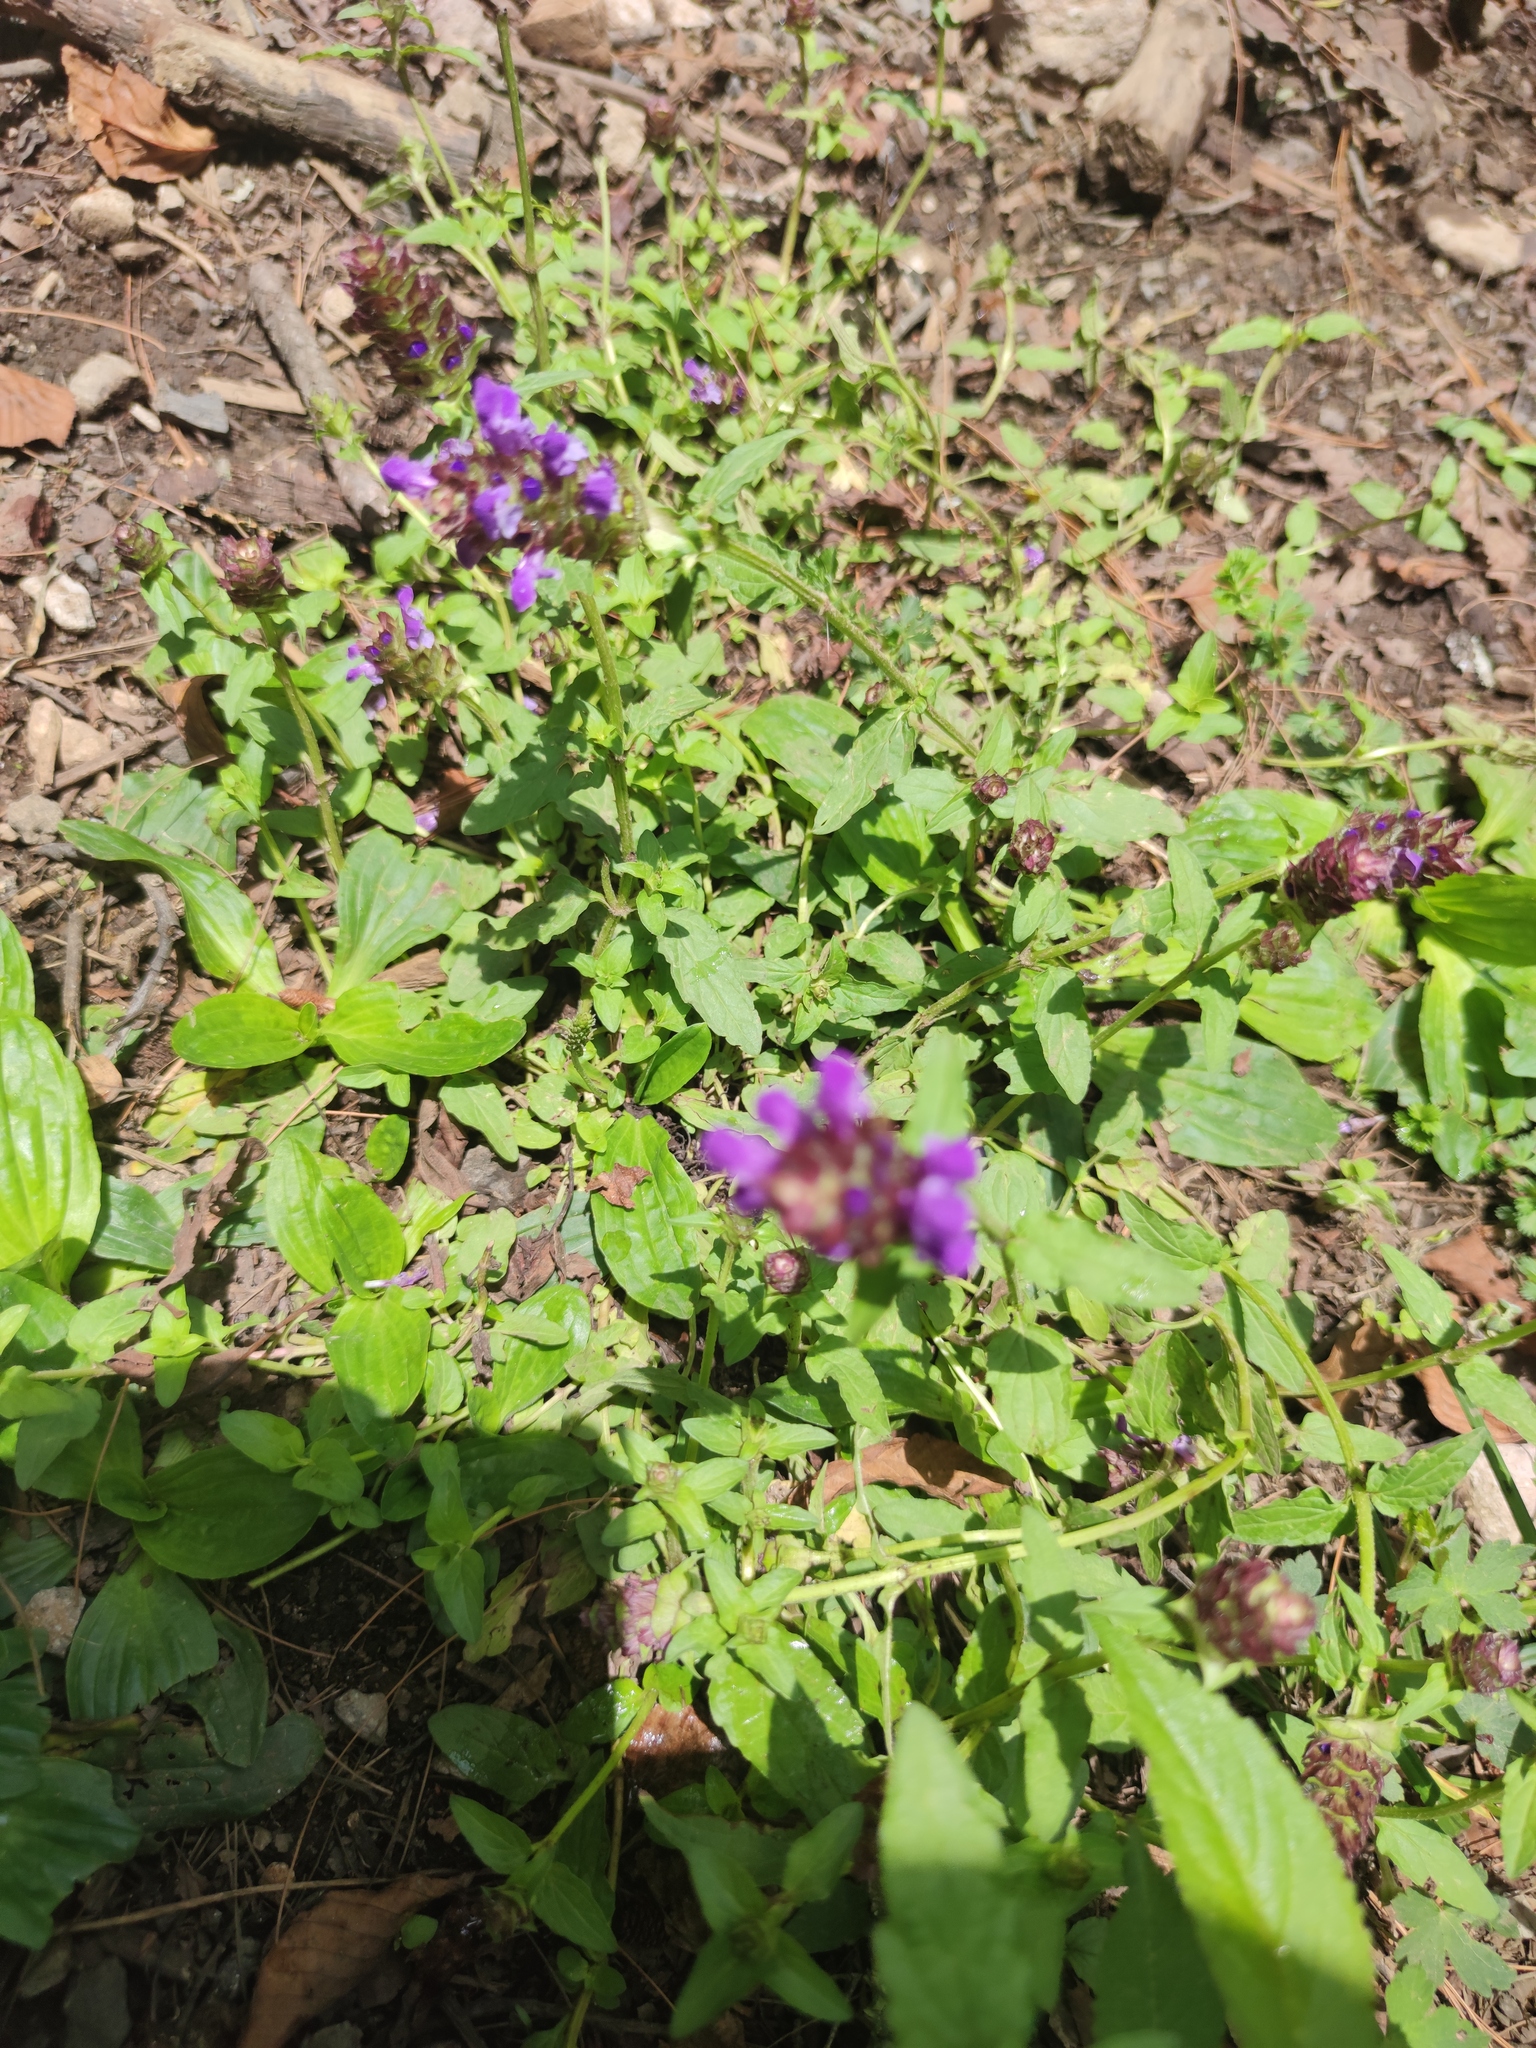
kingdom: Plantae
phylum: Tracheophyta
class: Magnoliopsida
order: Lamiales
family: Lamiaceae
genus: Prunella
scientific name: Prunella vulgaris
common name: Heal-all
